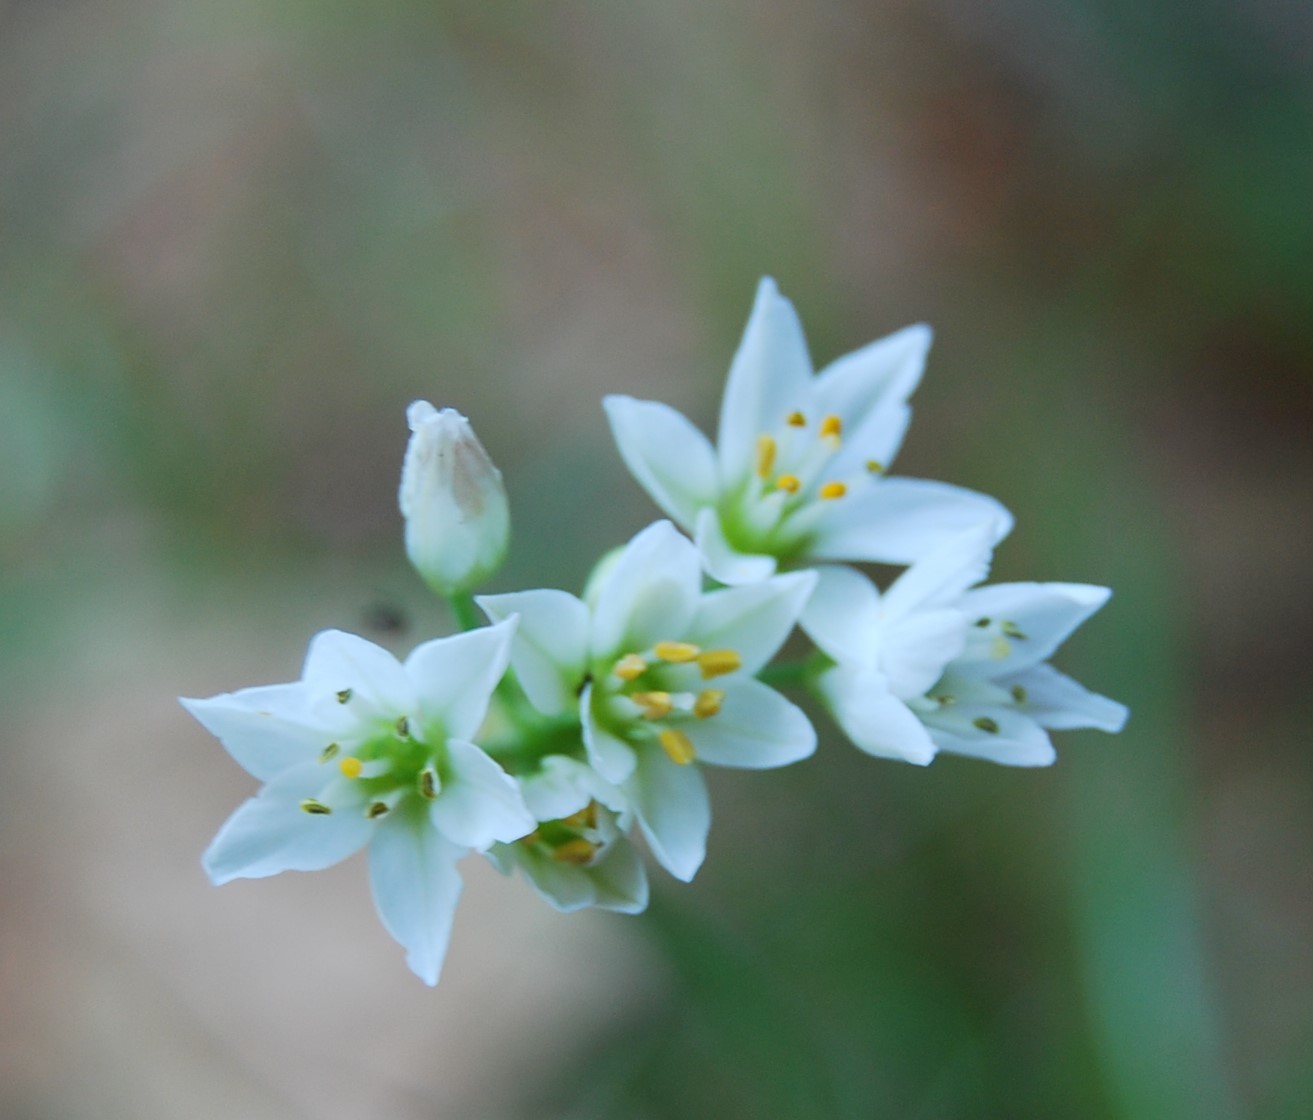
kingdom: Plantae
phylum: Tracheophyta
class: Liliopsida
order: Asparagales
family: Amaryllidaceae
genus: Nothoscordum
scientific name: Nothoscordum gracile
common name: Slender false garlic
